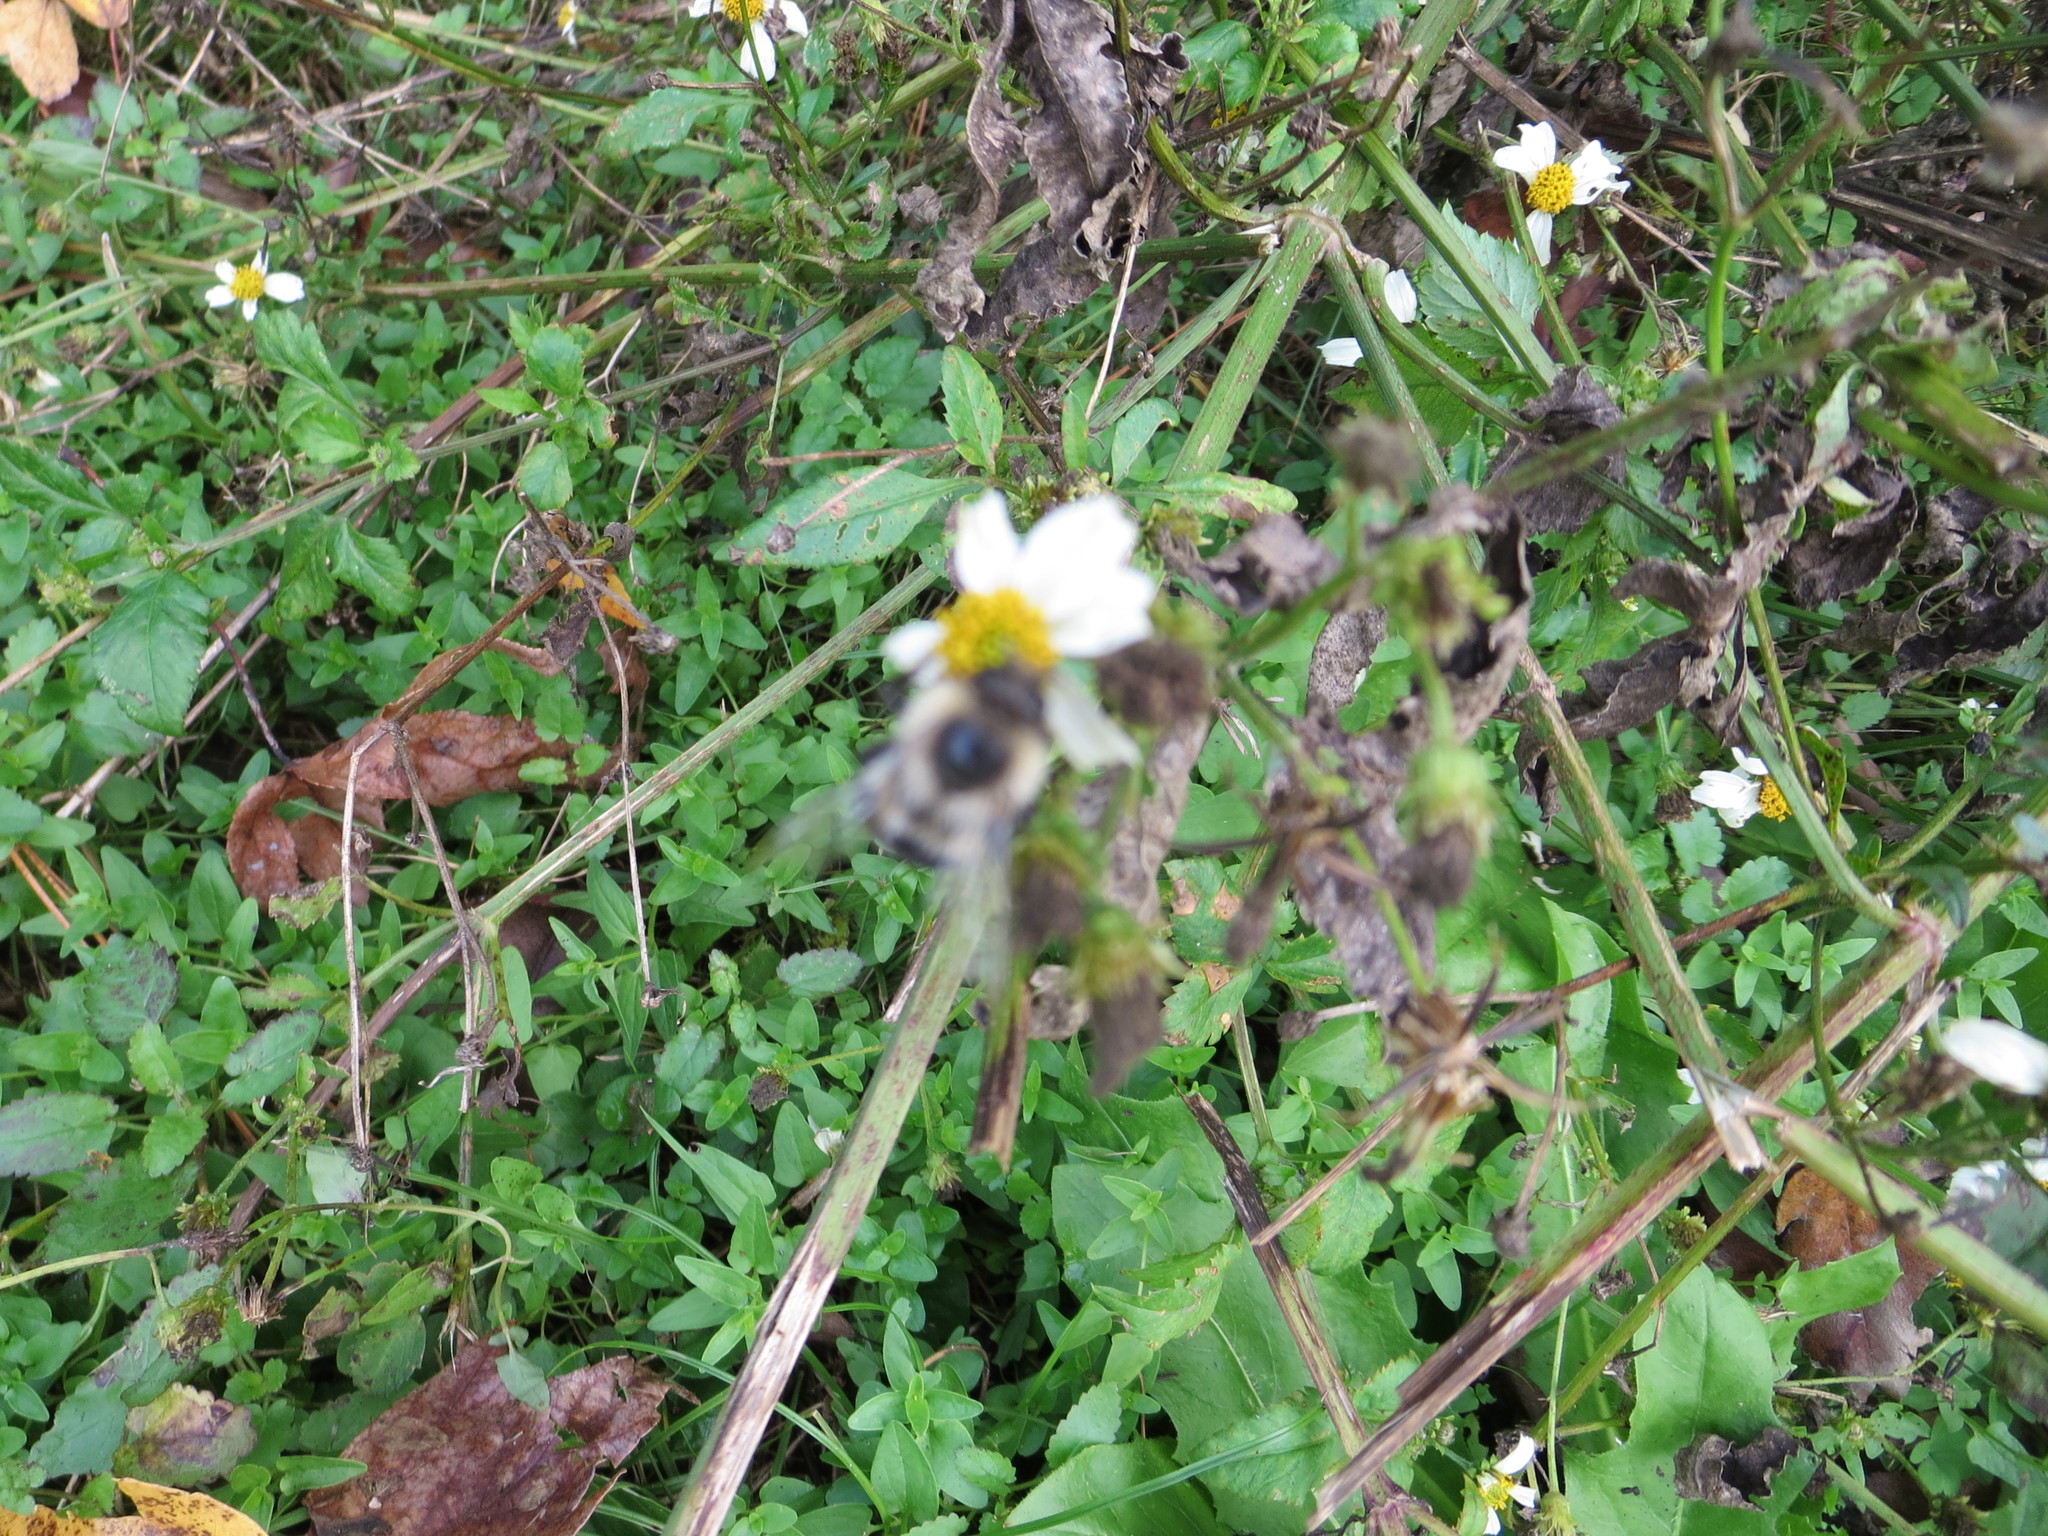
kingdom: Animalia
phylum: Arthropoda
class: Insecta
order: Hymenoptera
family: Apidae
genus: Bombus
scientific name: Bombus impatiens
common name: Common eastern bumble bee
